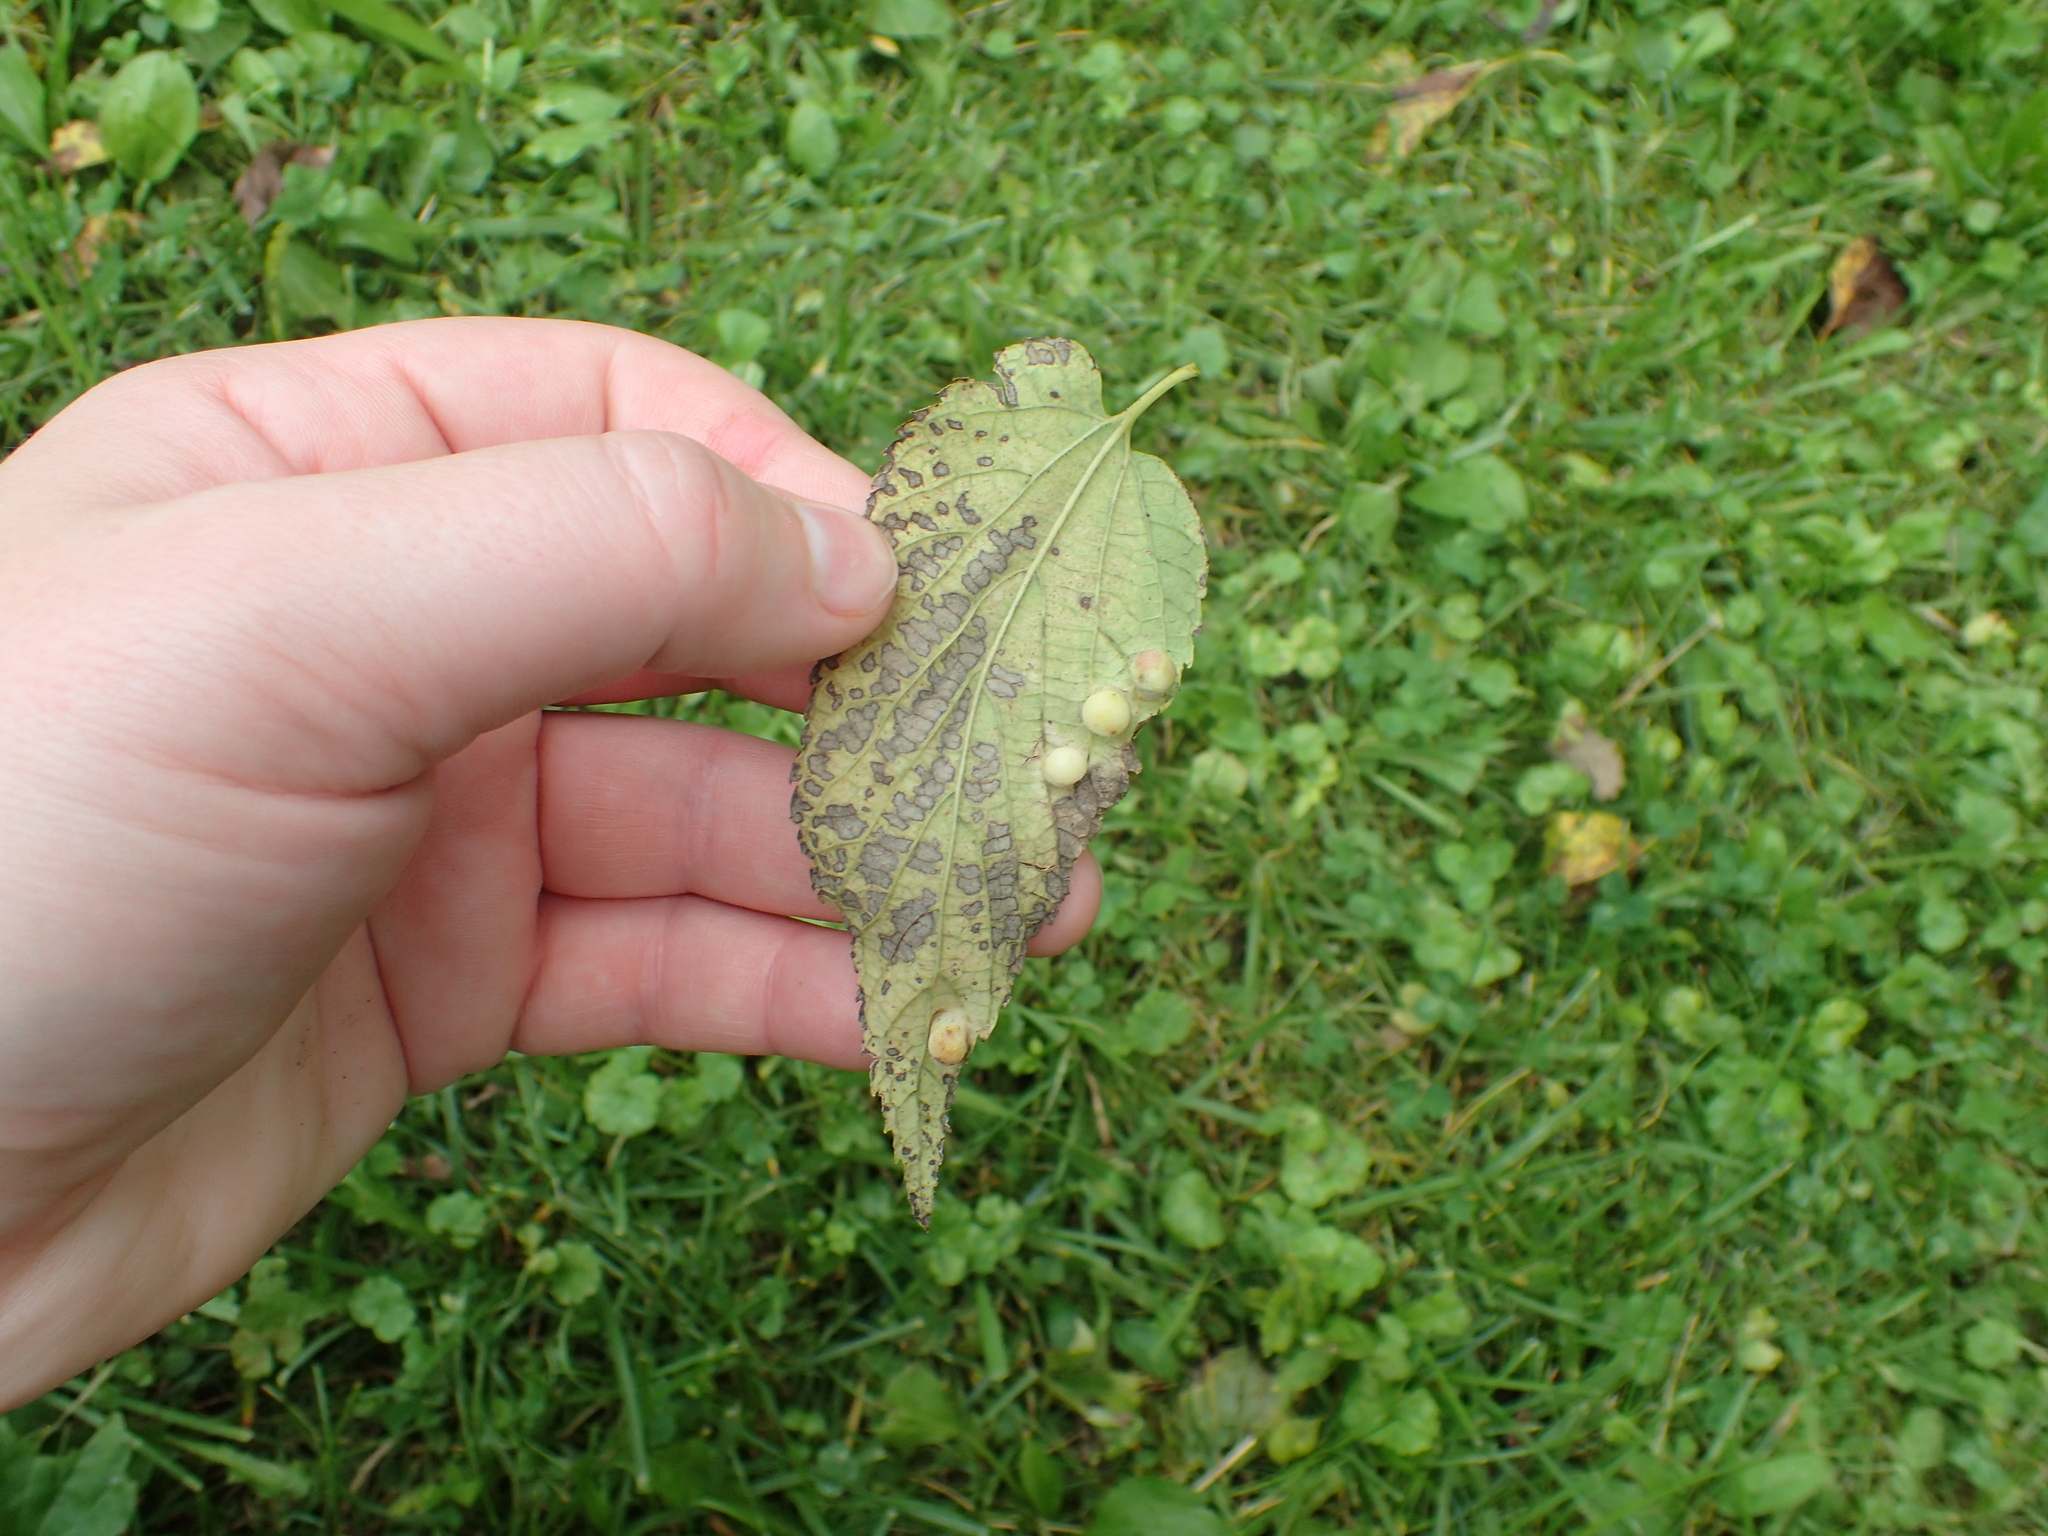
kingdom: Animalia
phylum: Arthropoda
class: Insecta
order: Hemiptera
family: Aphalaridae
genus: Pachypsylla
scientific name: Pachypsylla celtidismamma
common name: Hackberry nipplegall psyllid
